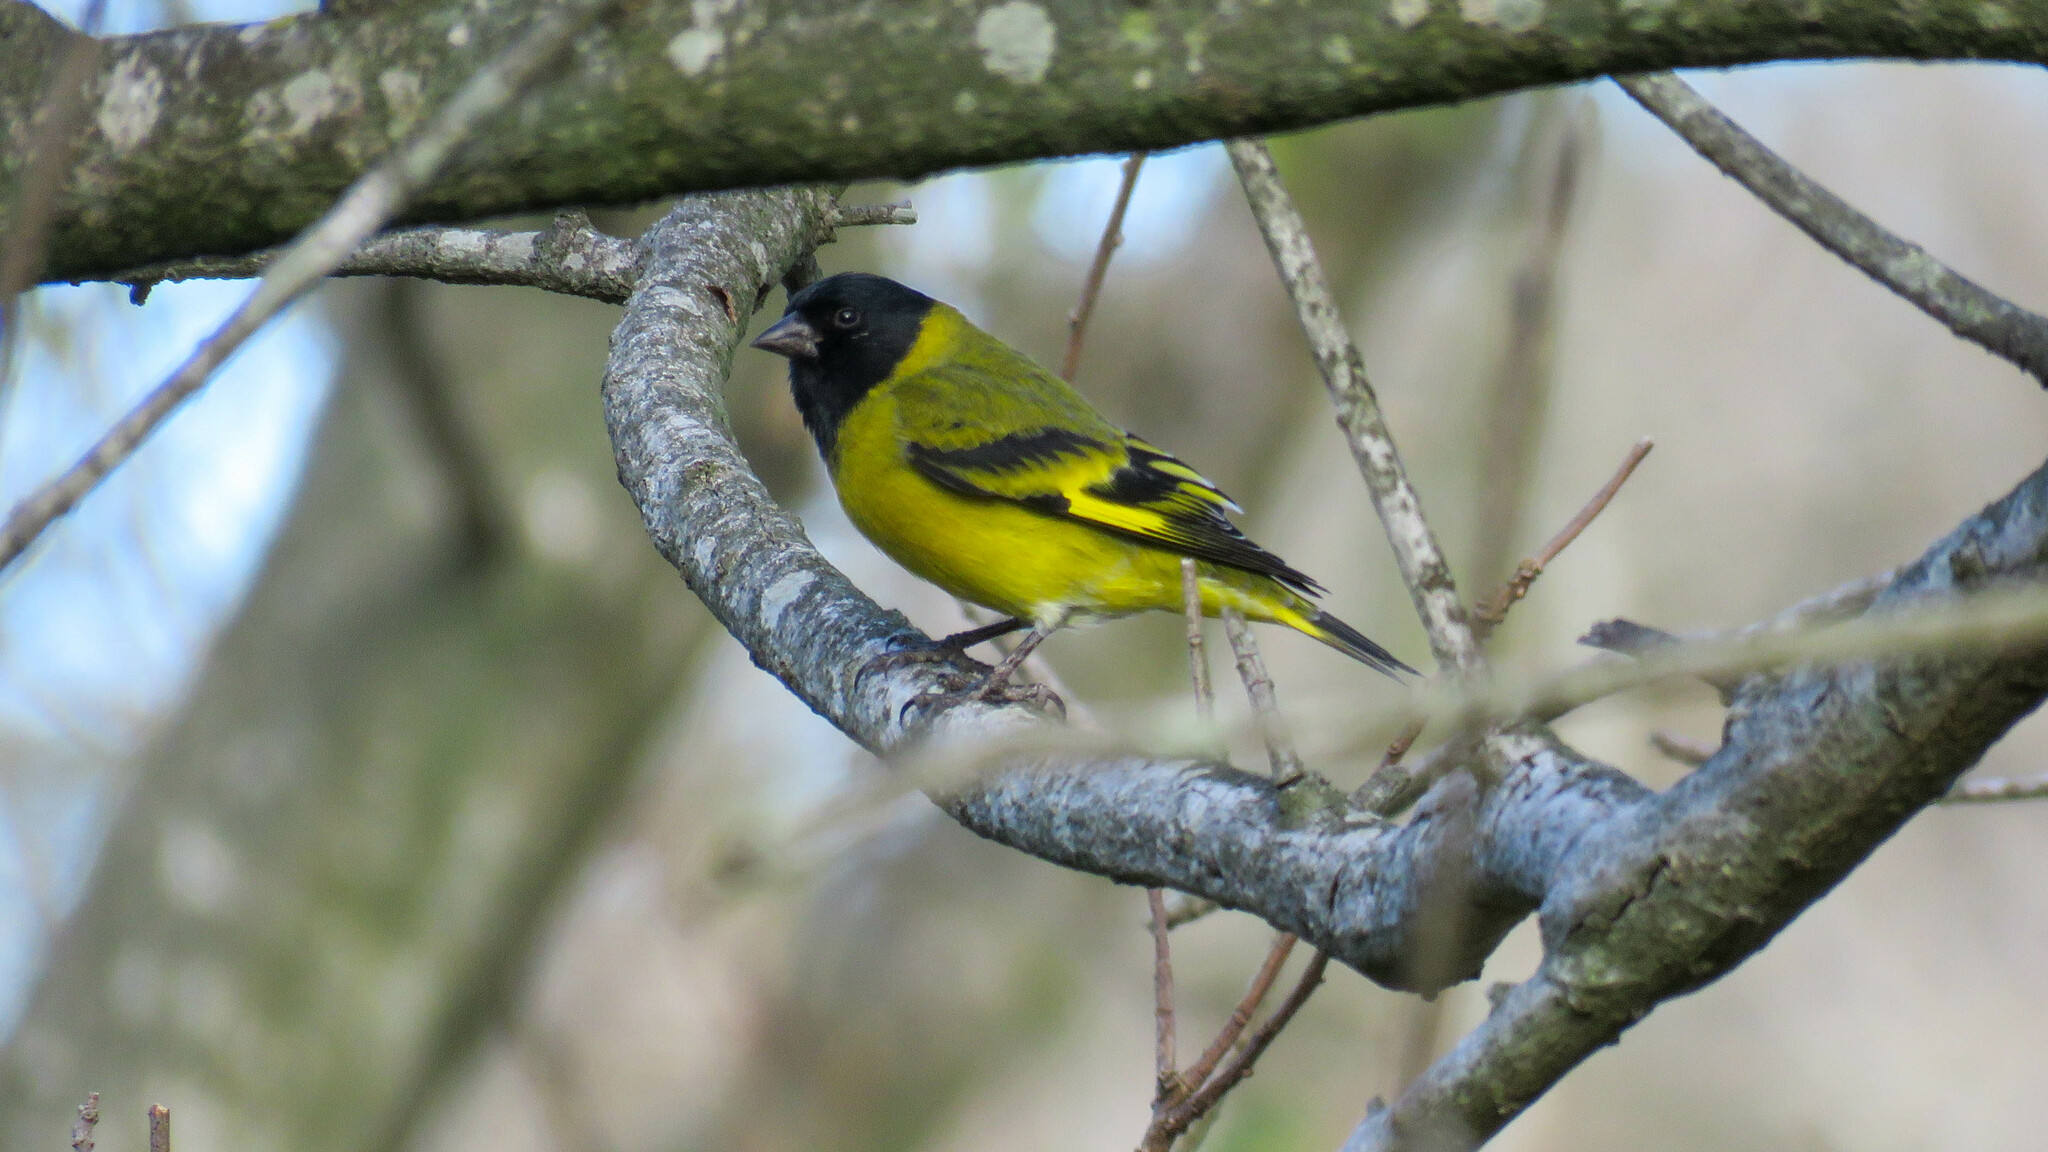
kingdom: Animalia
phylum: Chordata
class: Aves
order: Passeriformes
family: Fringillidae
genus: Spinus
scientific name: Spinus magellanicus
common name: Hooded siskin
